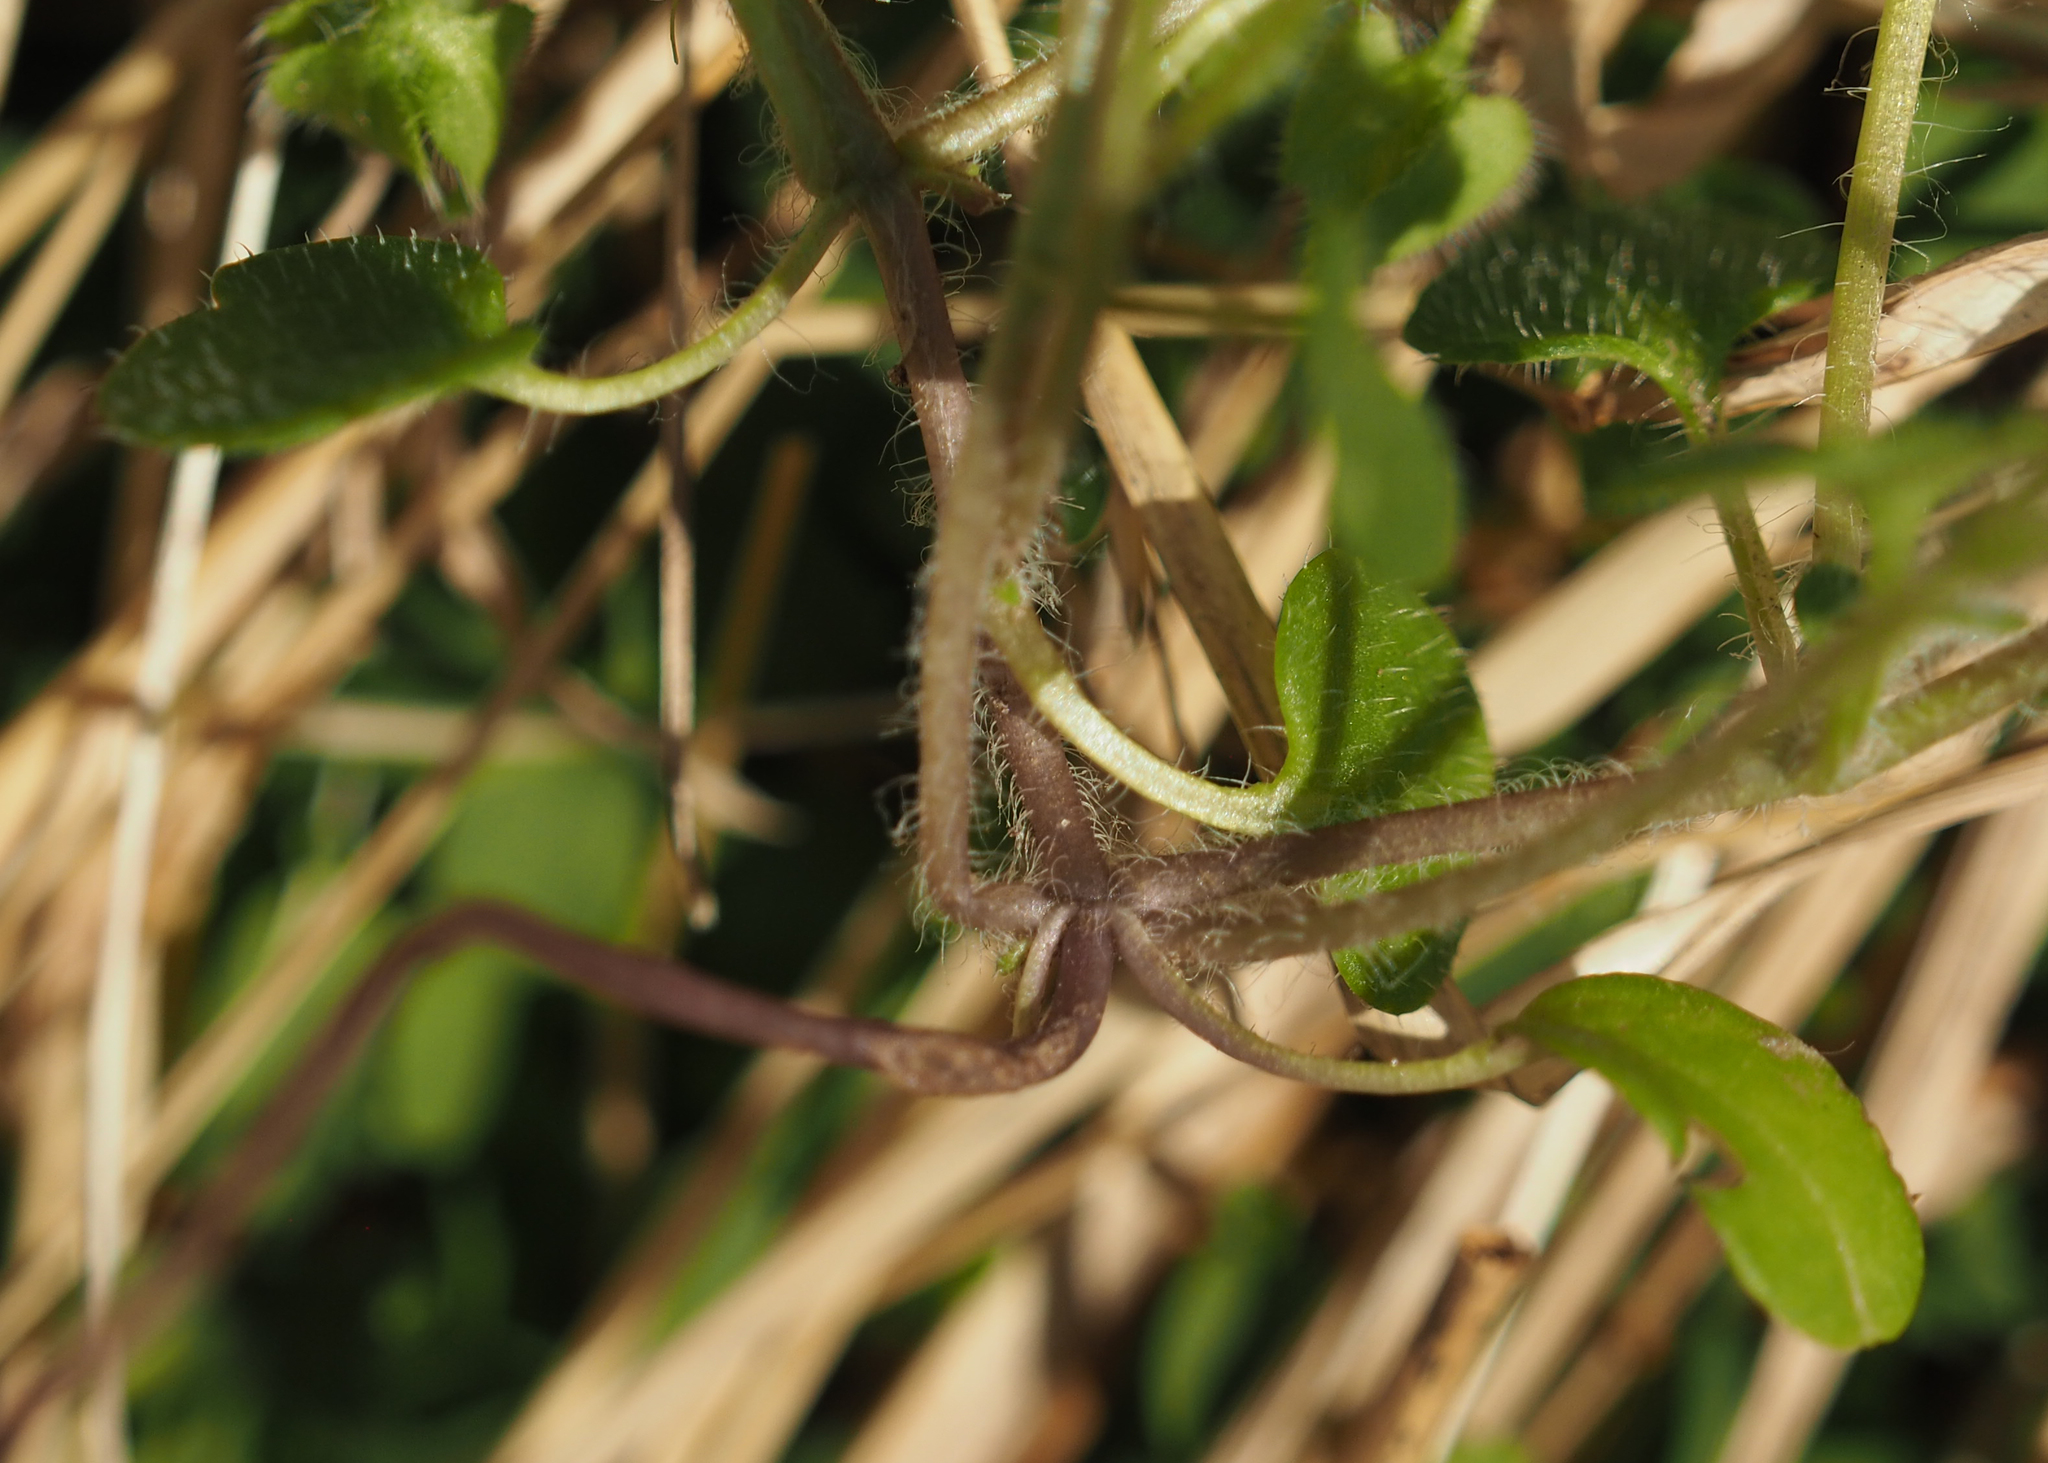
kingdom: Plantae
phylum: Tracheophyta
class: Magnoliopsida
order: Lamiales
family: Plantaginaceae
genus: Veronica
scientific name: Veronica hederifolia
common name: Ivy-leaved speedwell
